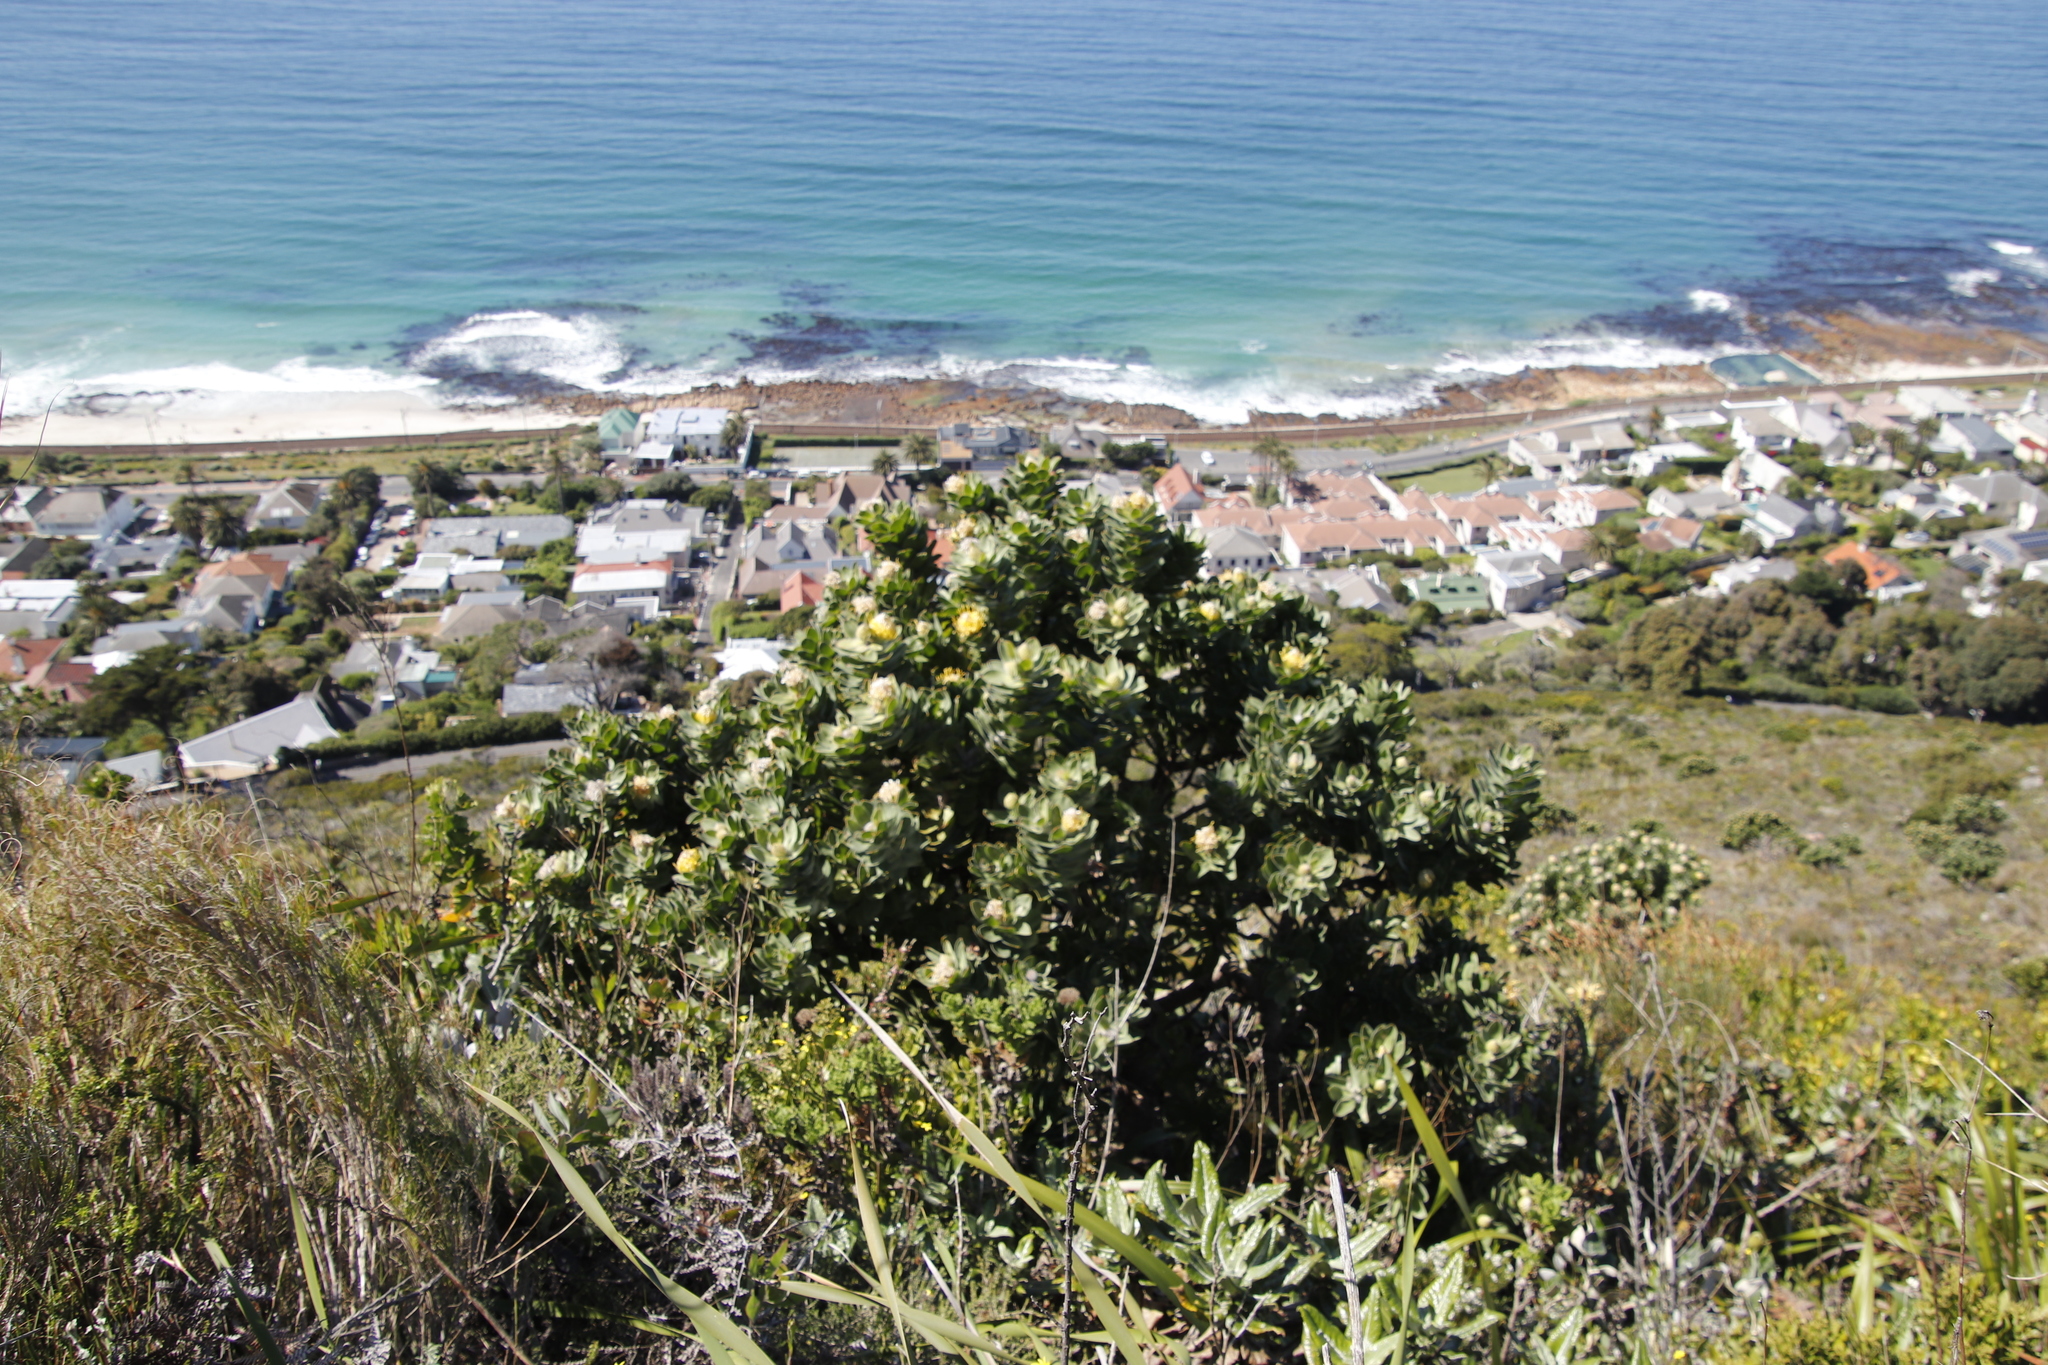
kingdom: Plantae
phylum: Tracheophyta
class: Magnoliopsida
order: Proteales
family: Proteaceae
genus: Leucospermum
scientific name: Leucospermum conocarpodendron
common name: Tree pincushion
